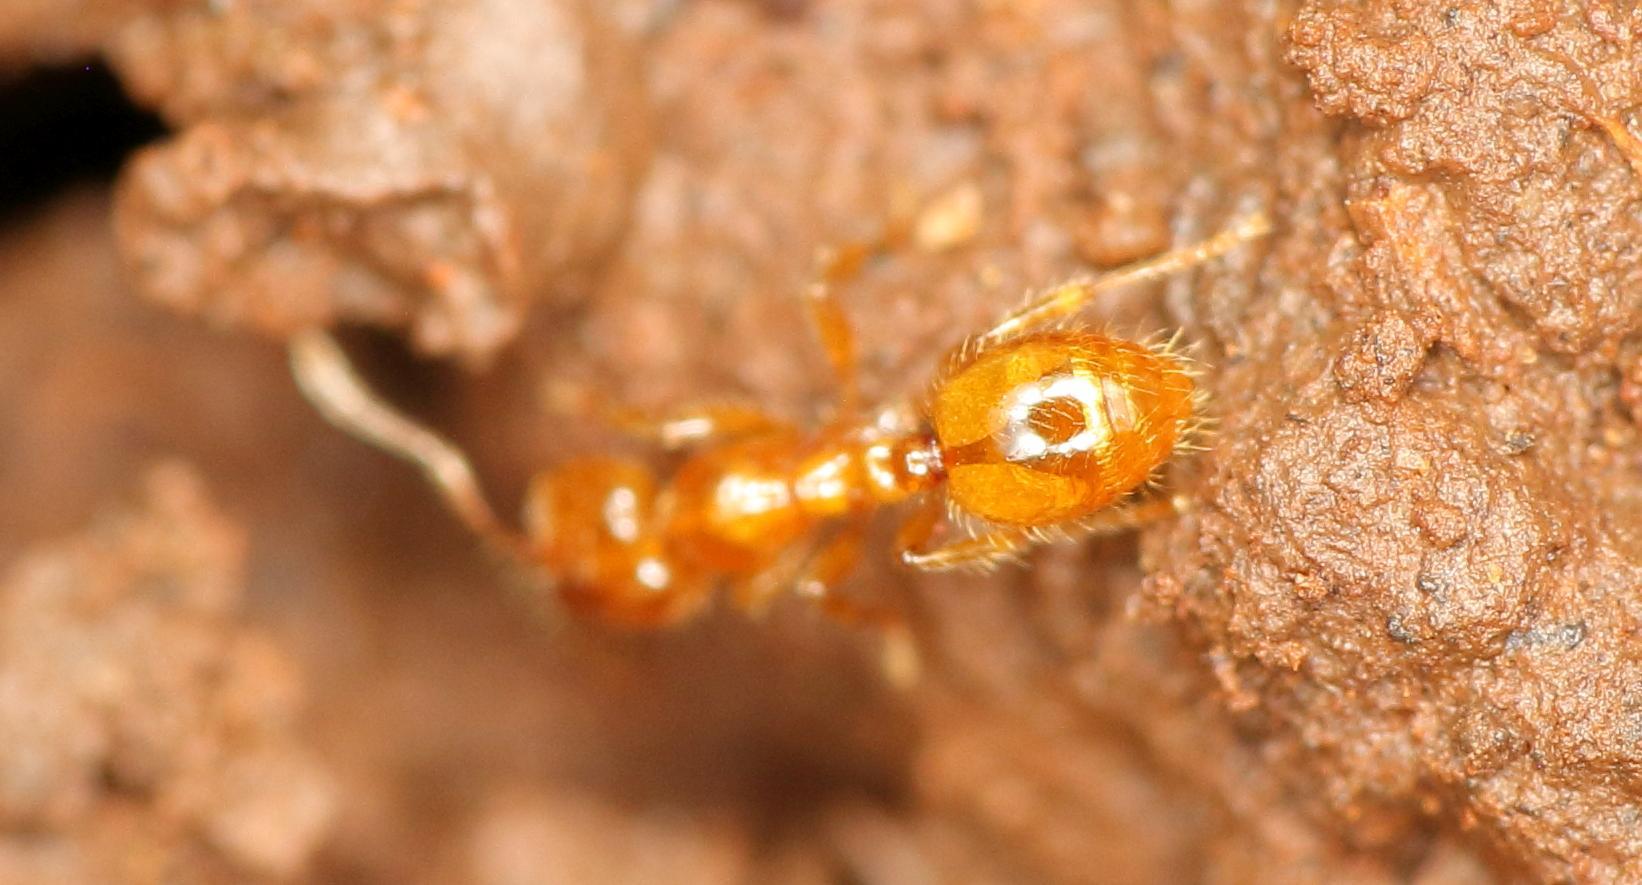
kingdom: Animalia
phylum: Arthropoda
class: Insecta
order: Hymenoptera
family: Formicidae
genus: Solenopsis
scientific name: Solenopsis punctaticeps
